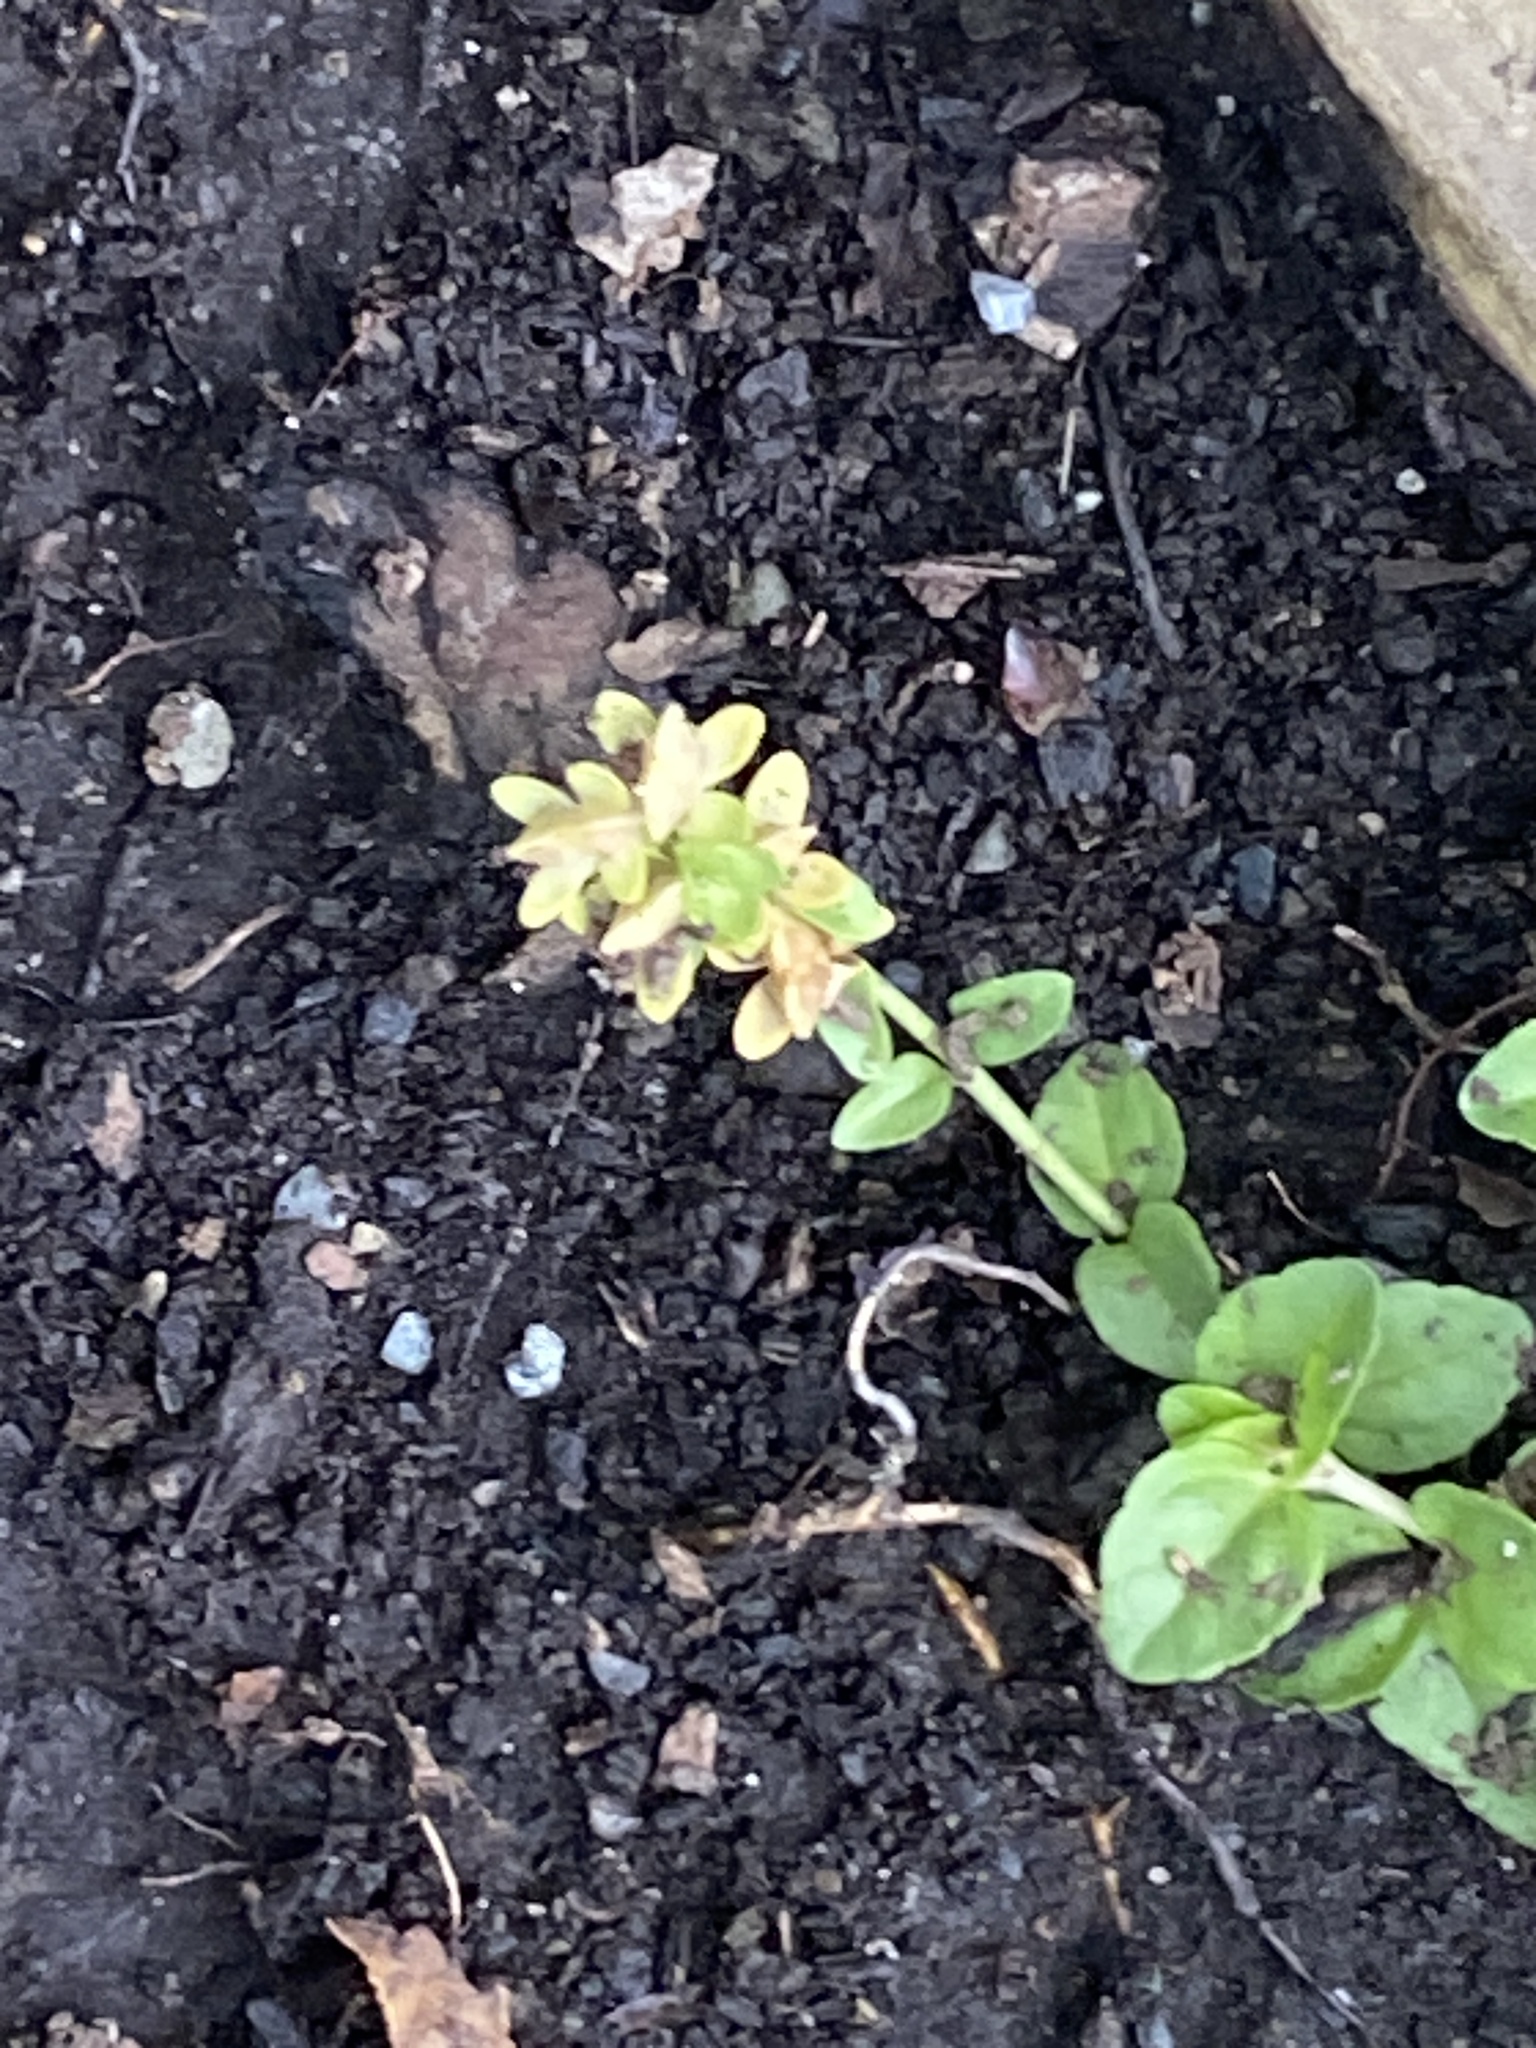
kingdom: Plantae
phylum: Tracheophyta
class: Magnoliopsida
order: Lamiales
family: Plantaginaceae
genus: Veronica
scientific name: Veronica serpyllifolia
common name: Thyme-leaved speedwell
